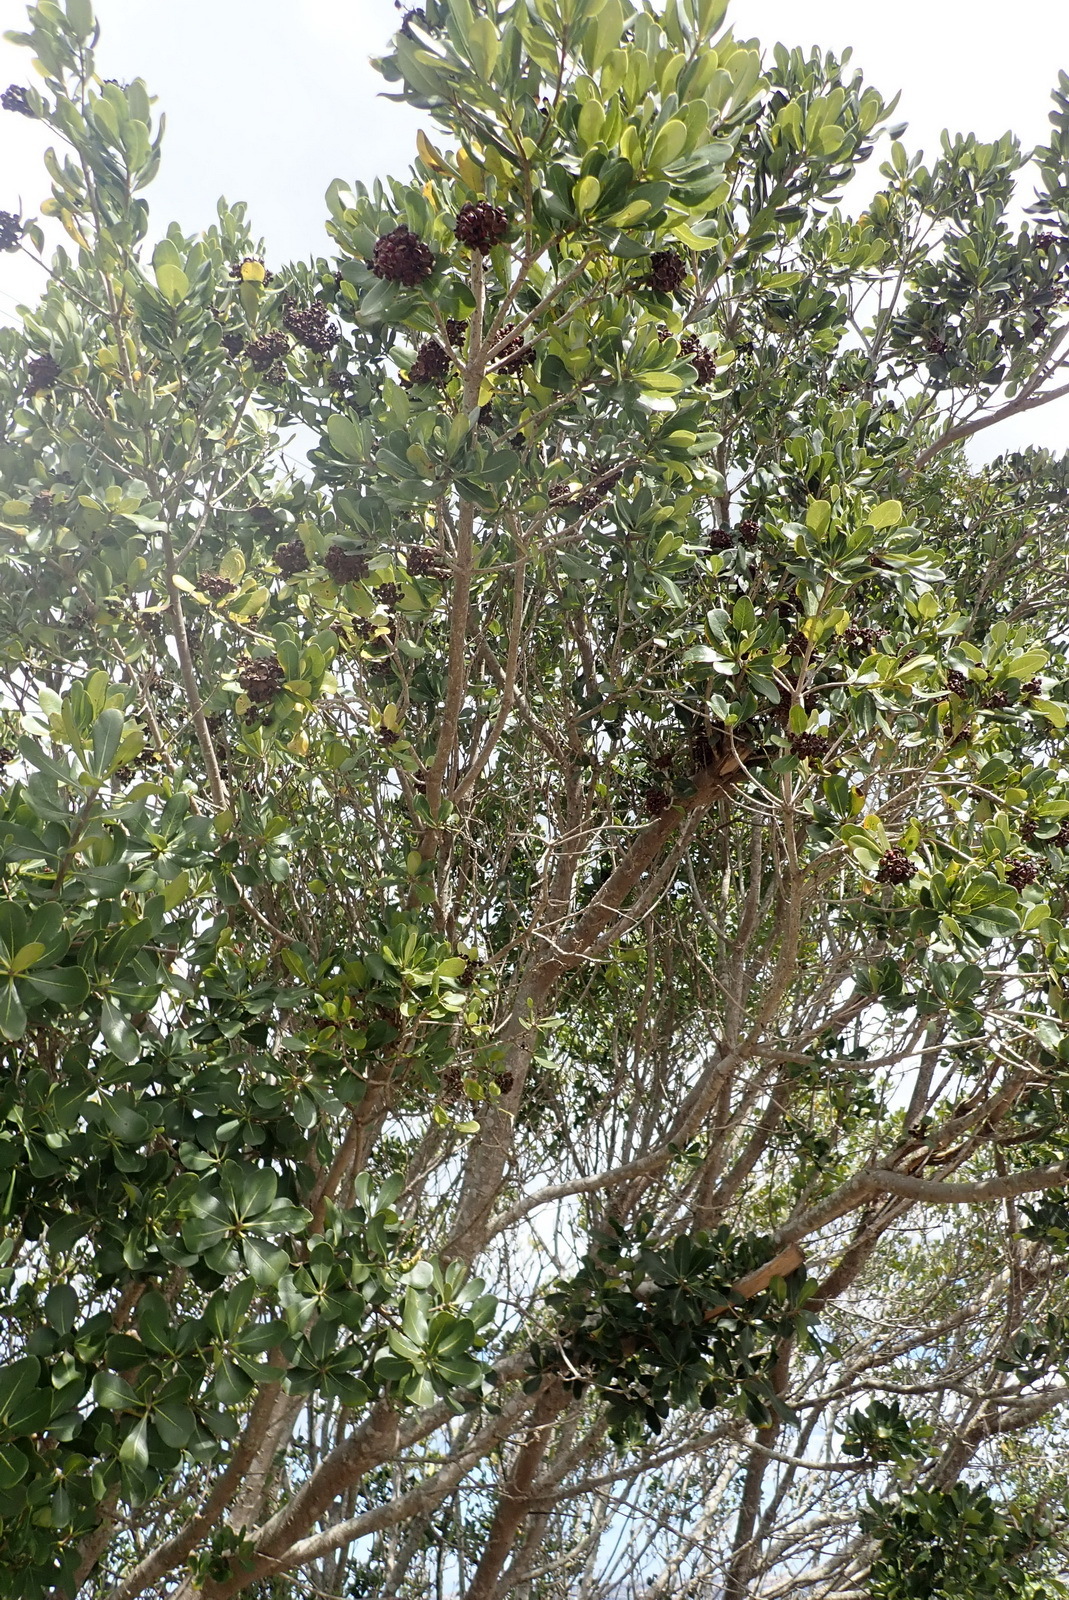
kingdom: Plantae
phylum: Tracheophyta
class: Magnoliopsida
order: Apiales
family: Pittosporaceae
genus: Pittosporum
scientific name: Pittosporum viridiflorum
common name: Cape cheesewood
